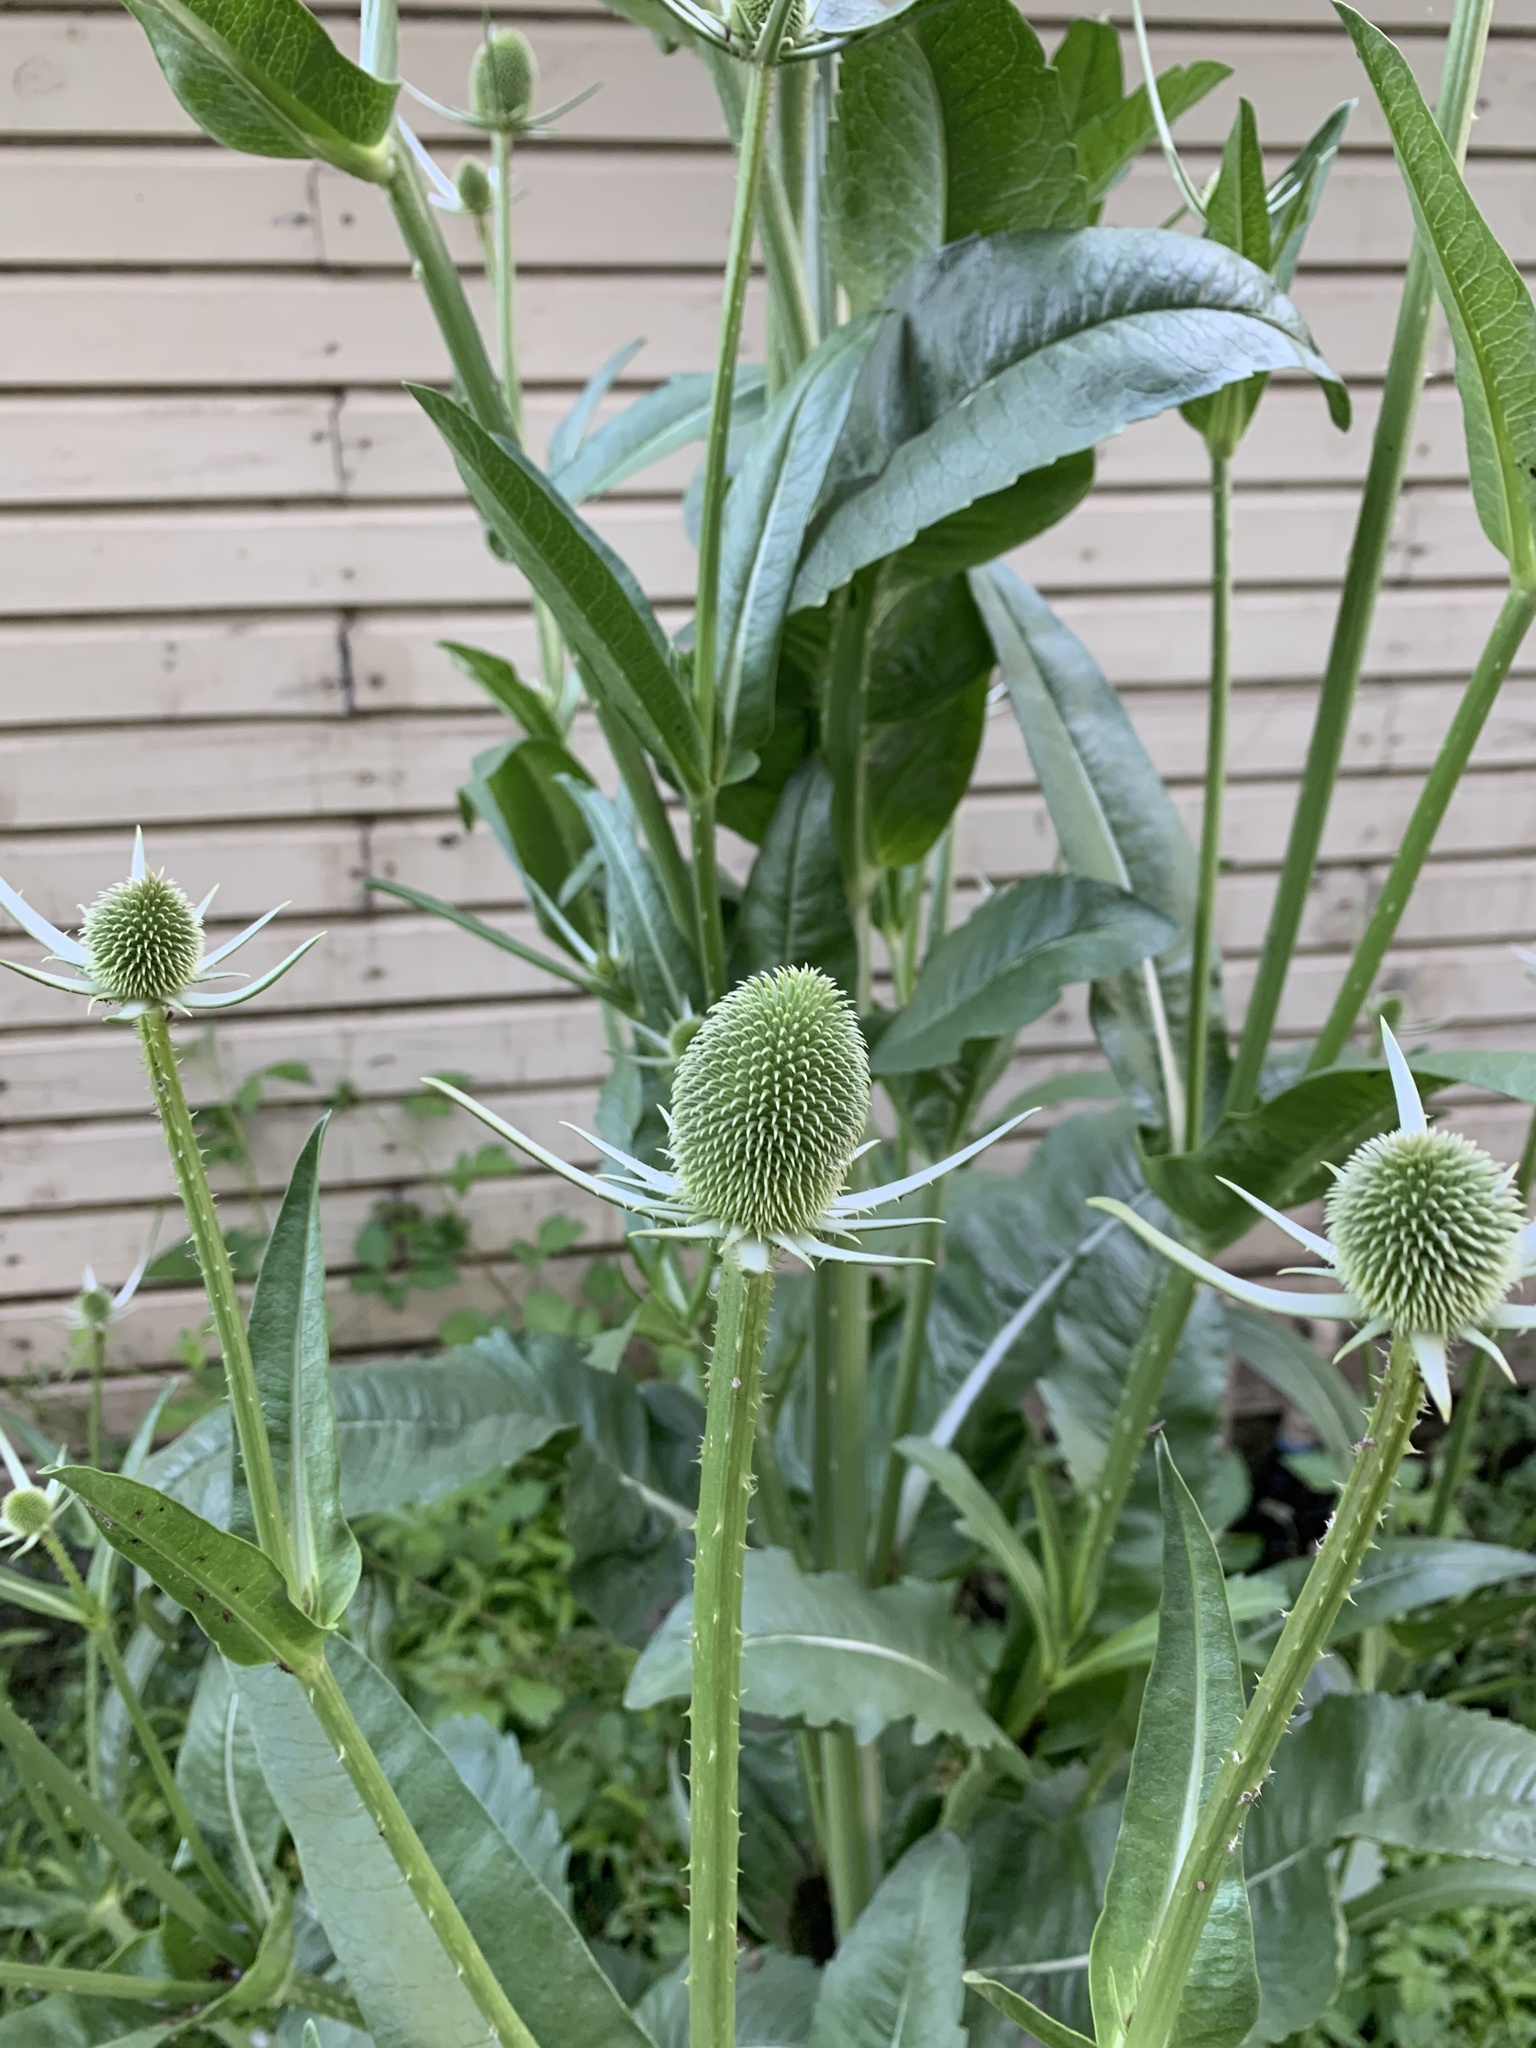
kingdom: Plantae
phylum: Tracheophyta
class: Magnoliopsida
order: Dipsacales
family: Caprifoliaceae
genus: Dipsacus
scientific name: Dipsacus sativus
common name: Fuller's teasel
